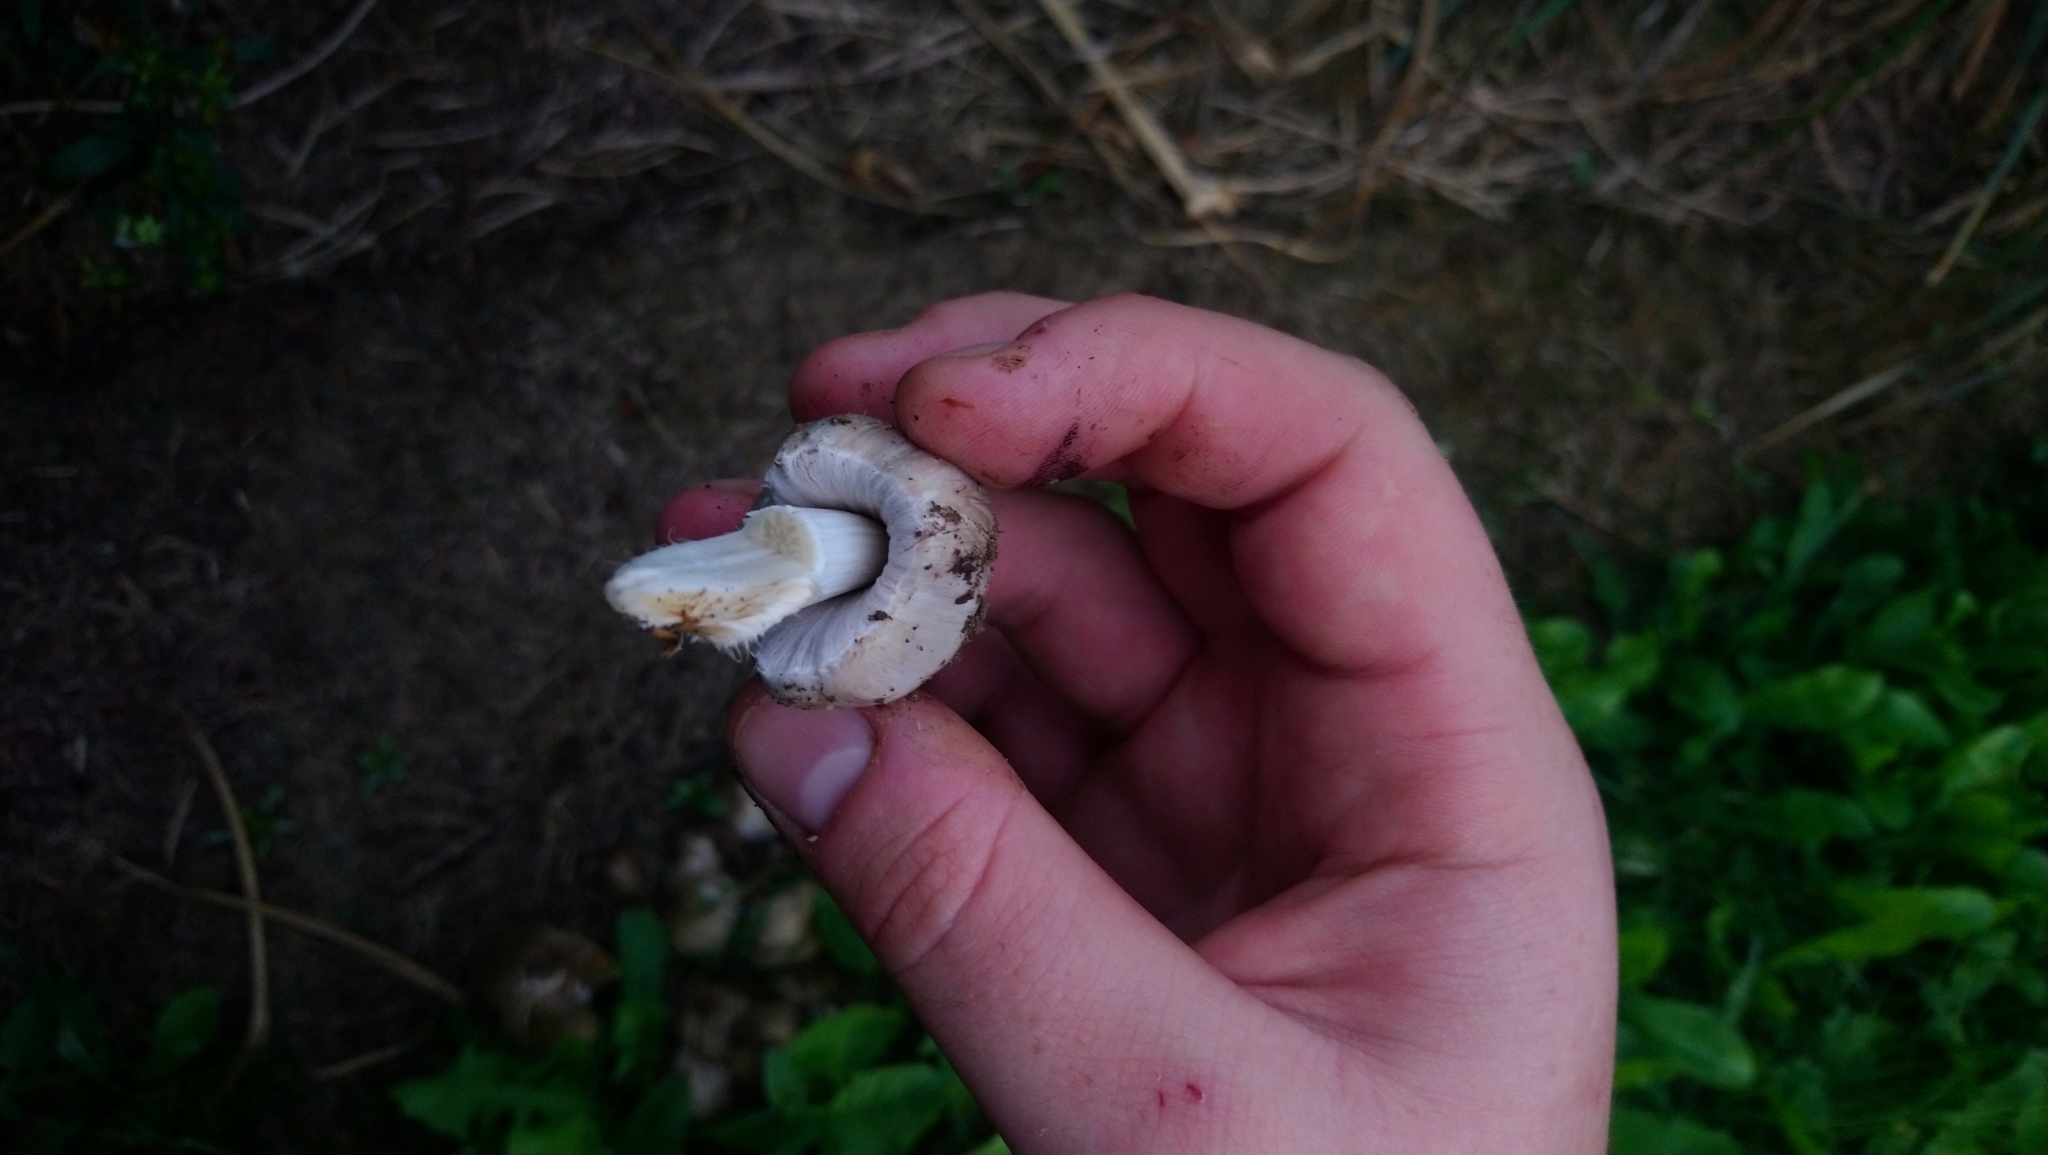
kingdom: Fungi
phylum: Basidiomycota
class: Agaricomycetes
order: Agaricales
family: Psathyrellaceae
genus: Coprinopsis
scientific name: Coprinopsis atramentaria
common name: Common ink-cap
